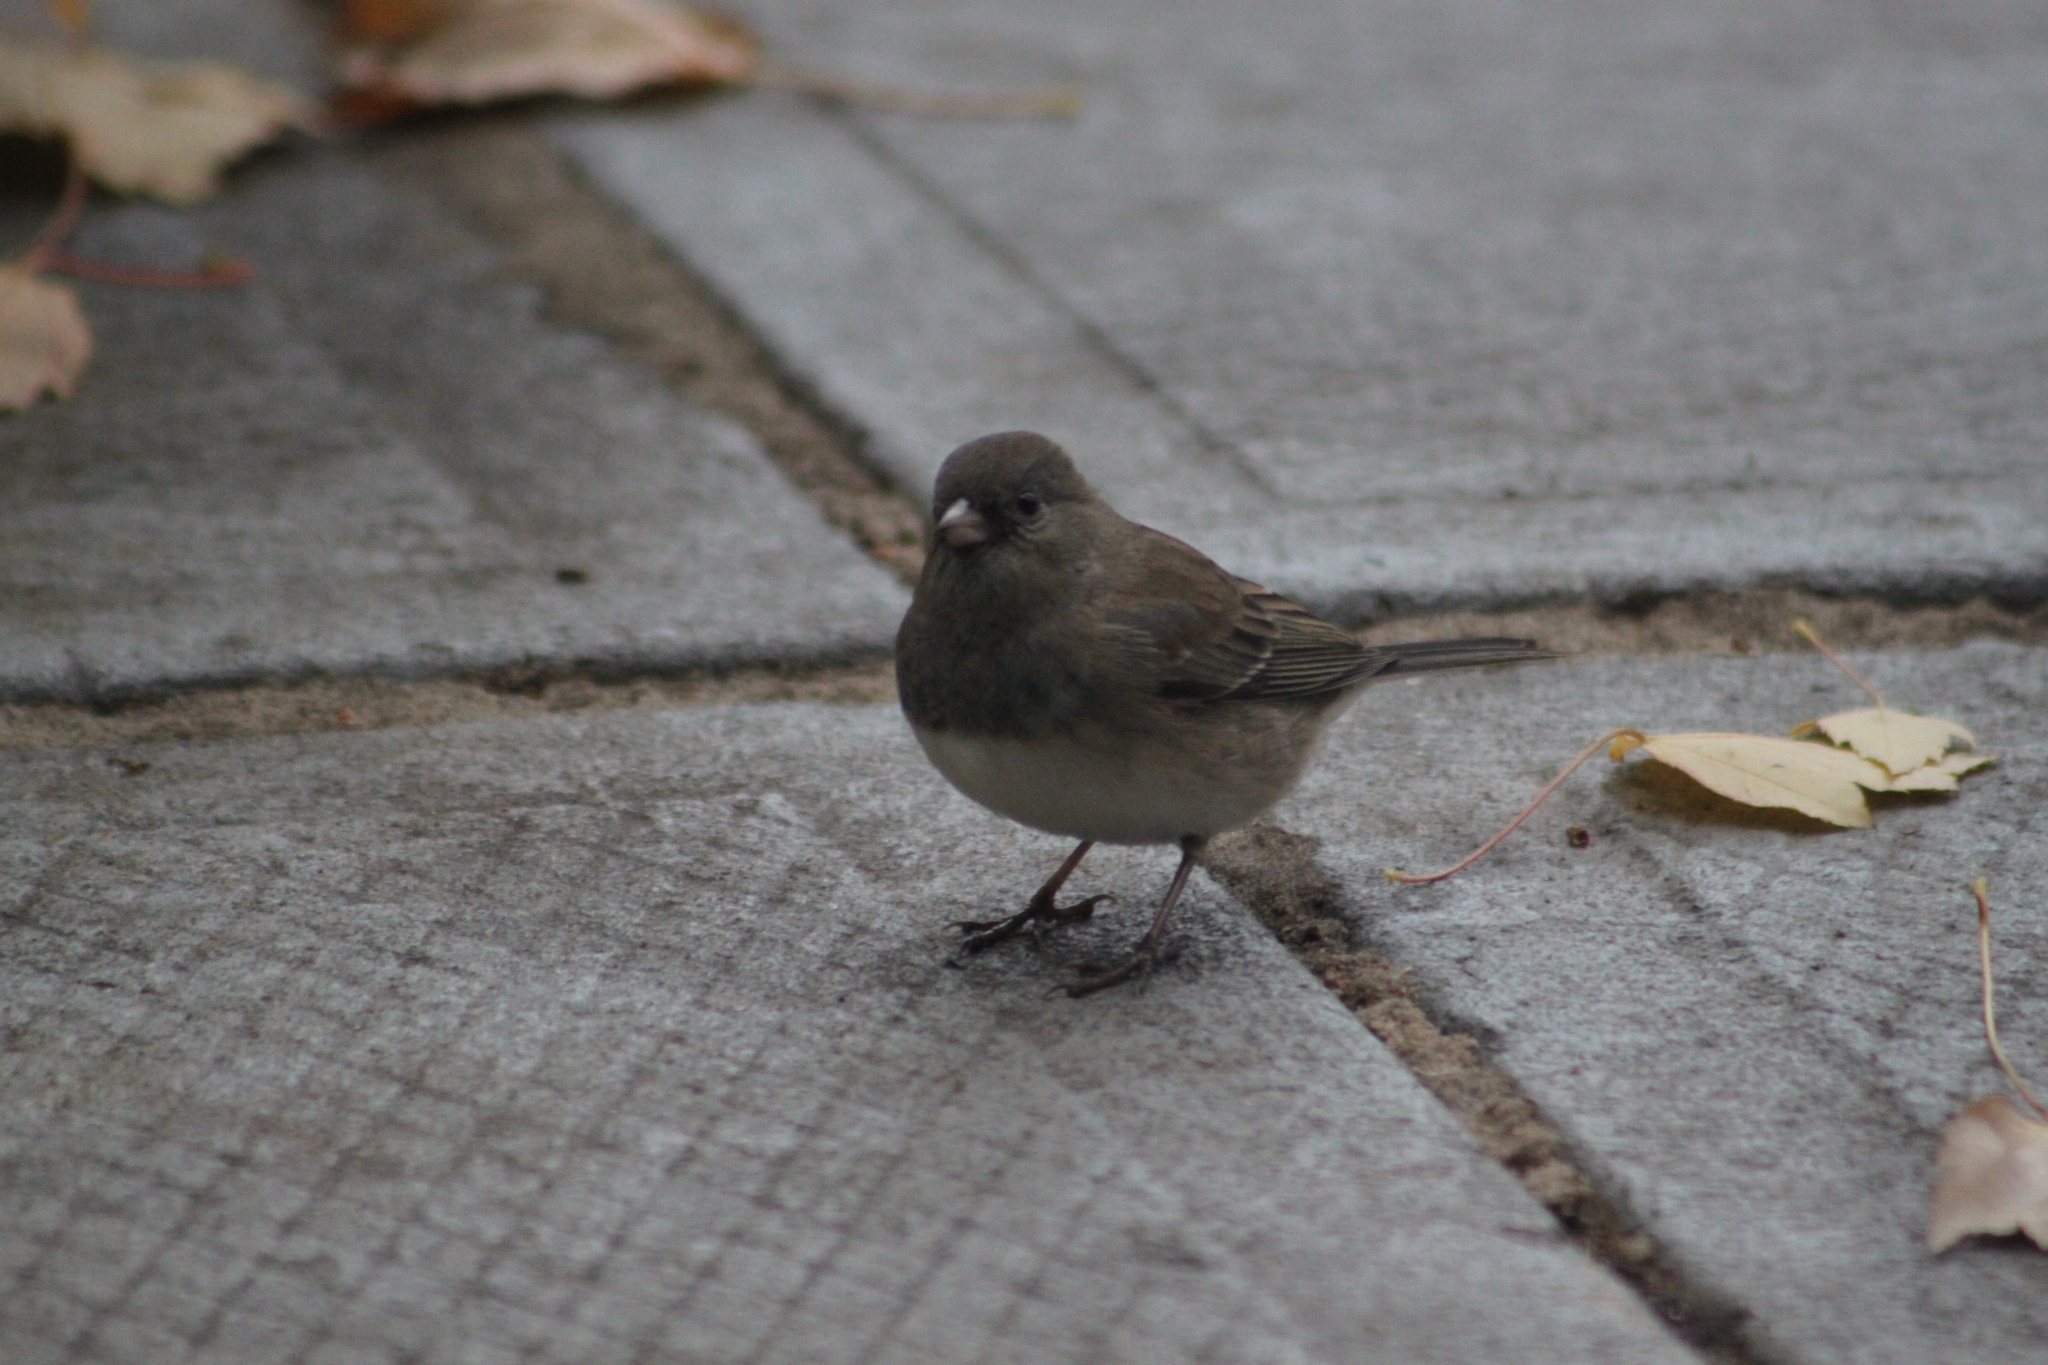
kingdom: Animalia
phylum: Chordata
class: Aves
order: Passeriformes
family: Passerellidae
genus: Junco
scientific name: Junco hyemalis
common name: Dark-eyed junco
